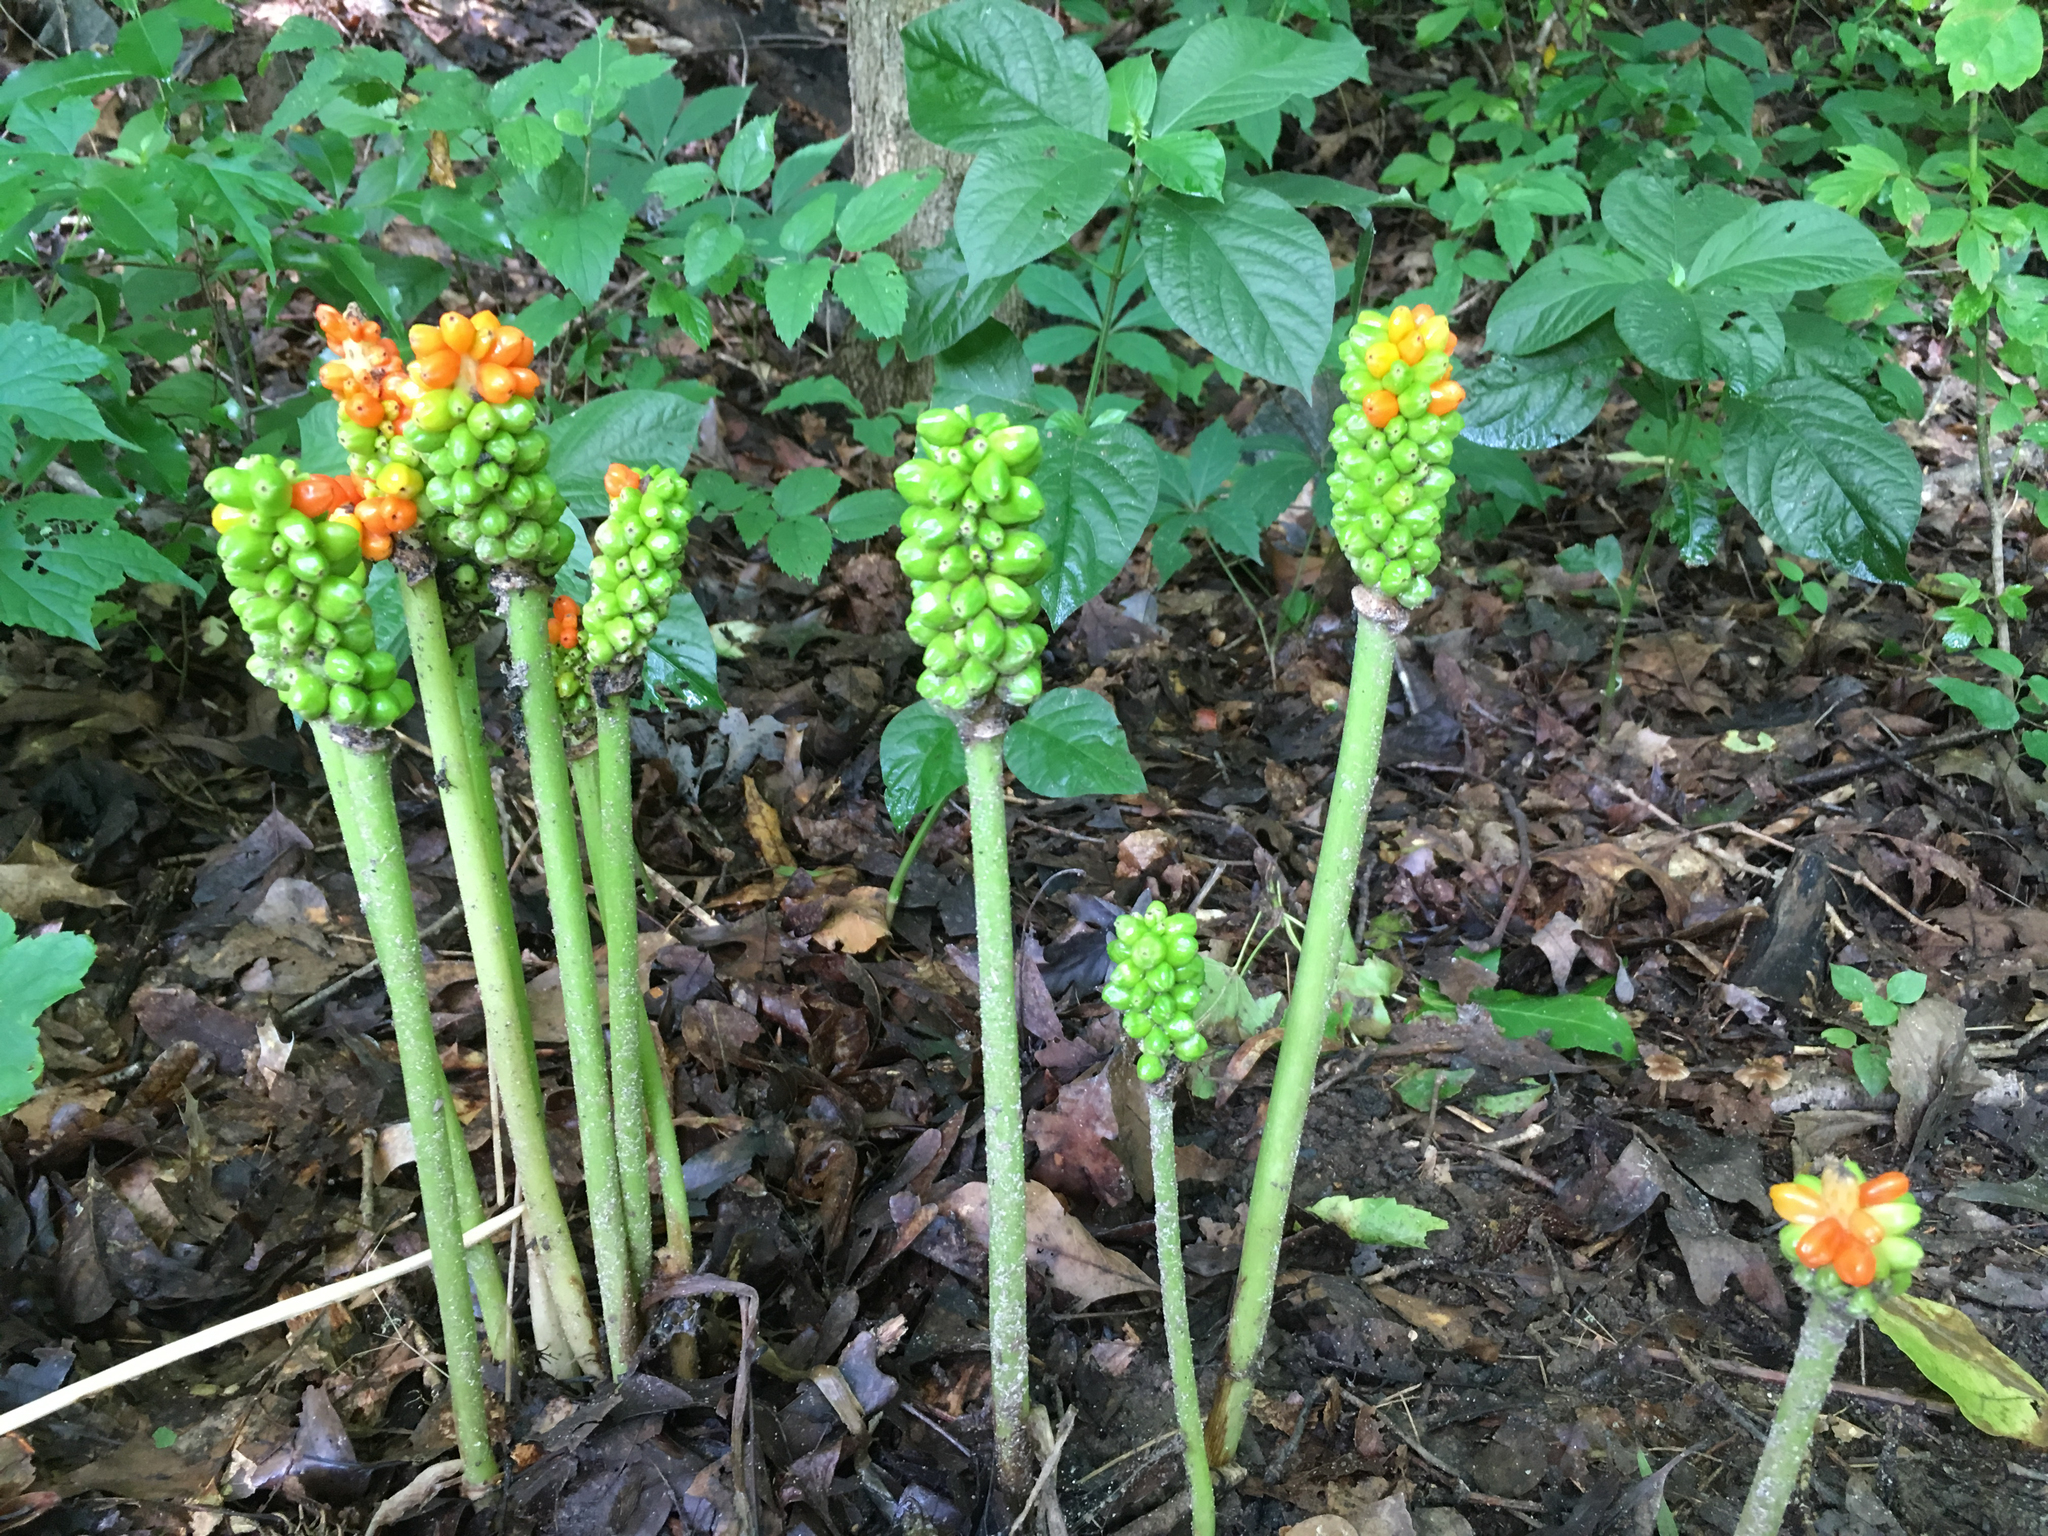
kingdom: Plantae
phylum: Tracheophyta
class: Liliopsida
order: Alismatales
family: Araceae
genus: Arum
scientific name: Arum italicum
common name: Italian lords-and-ladies
